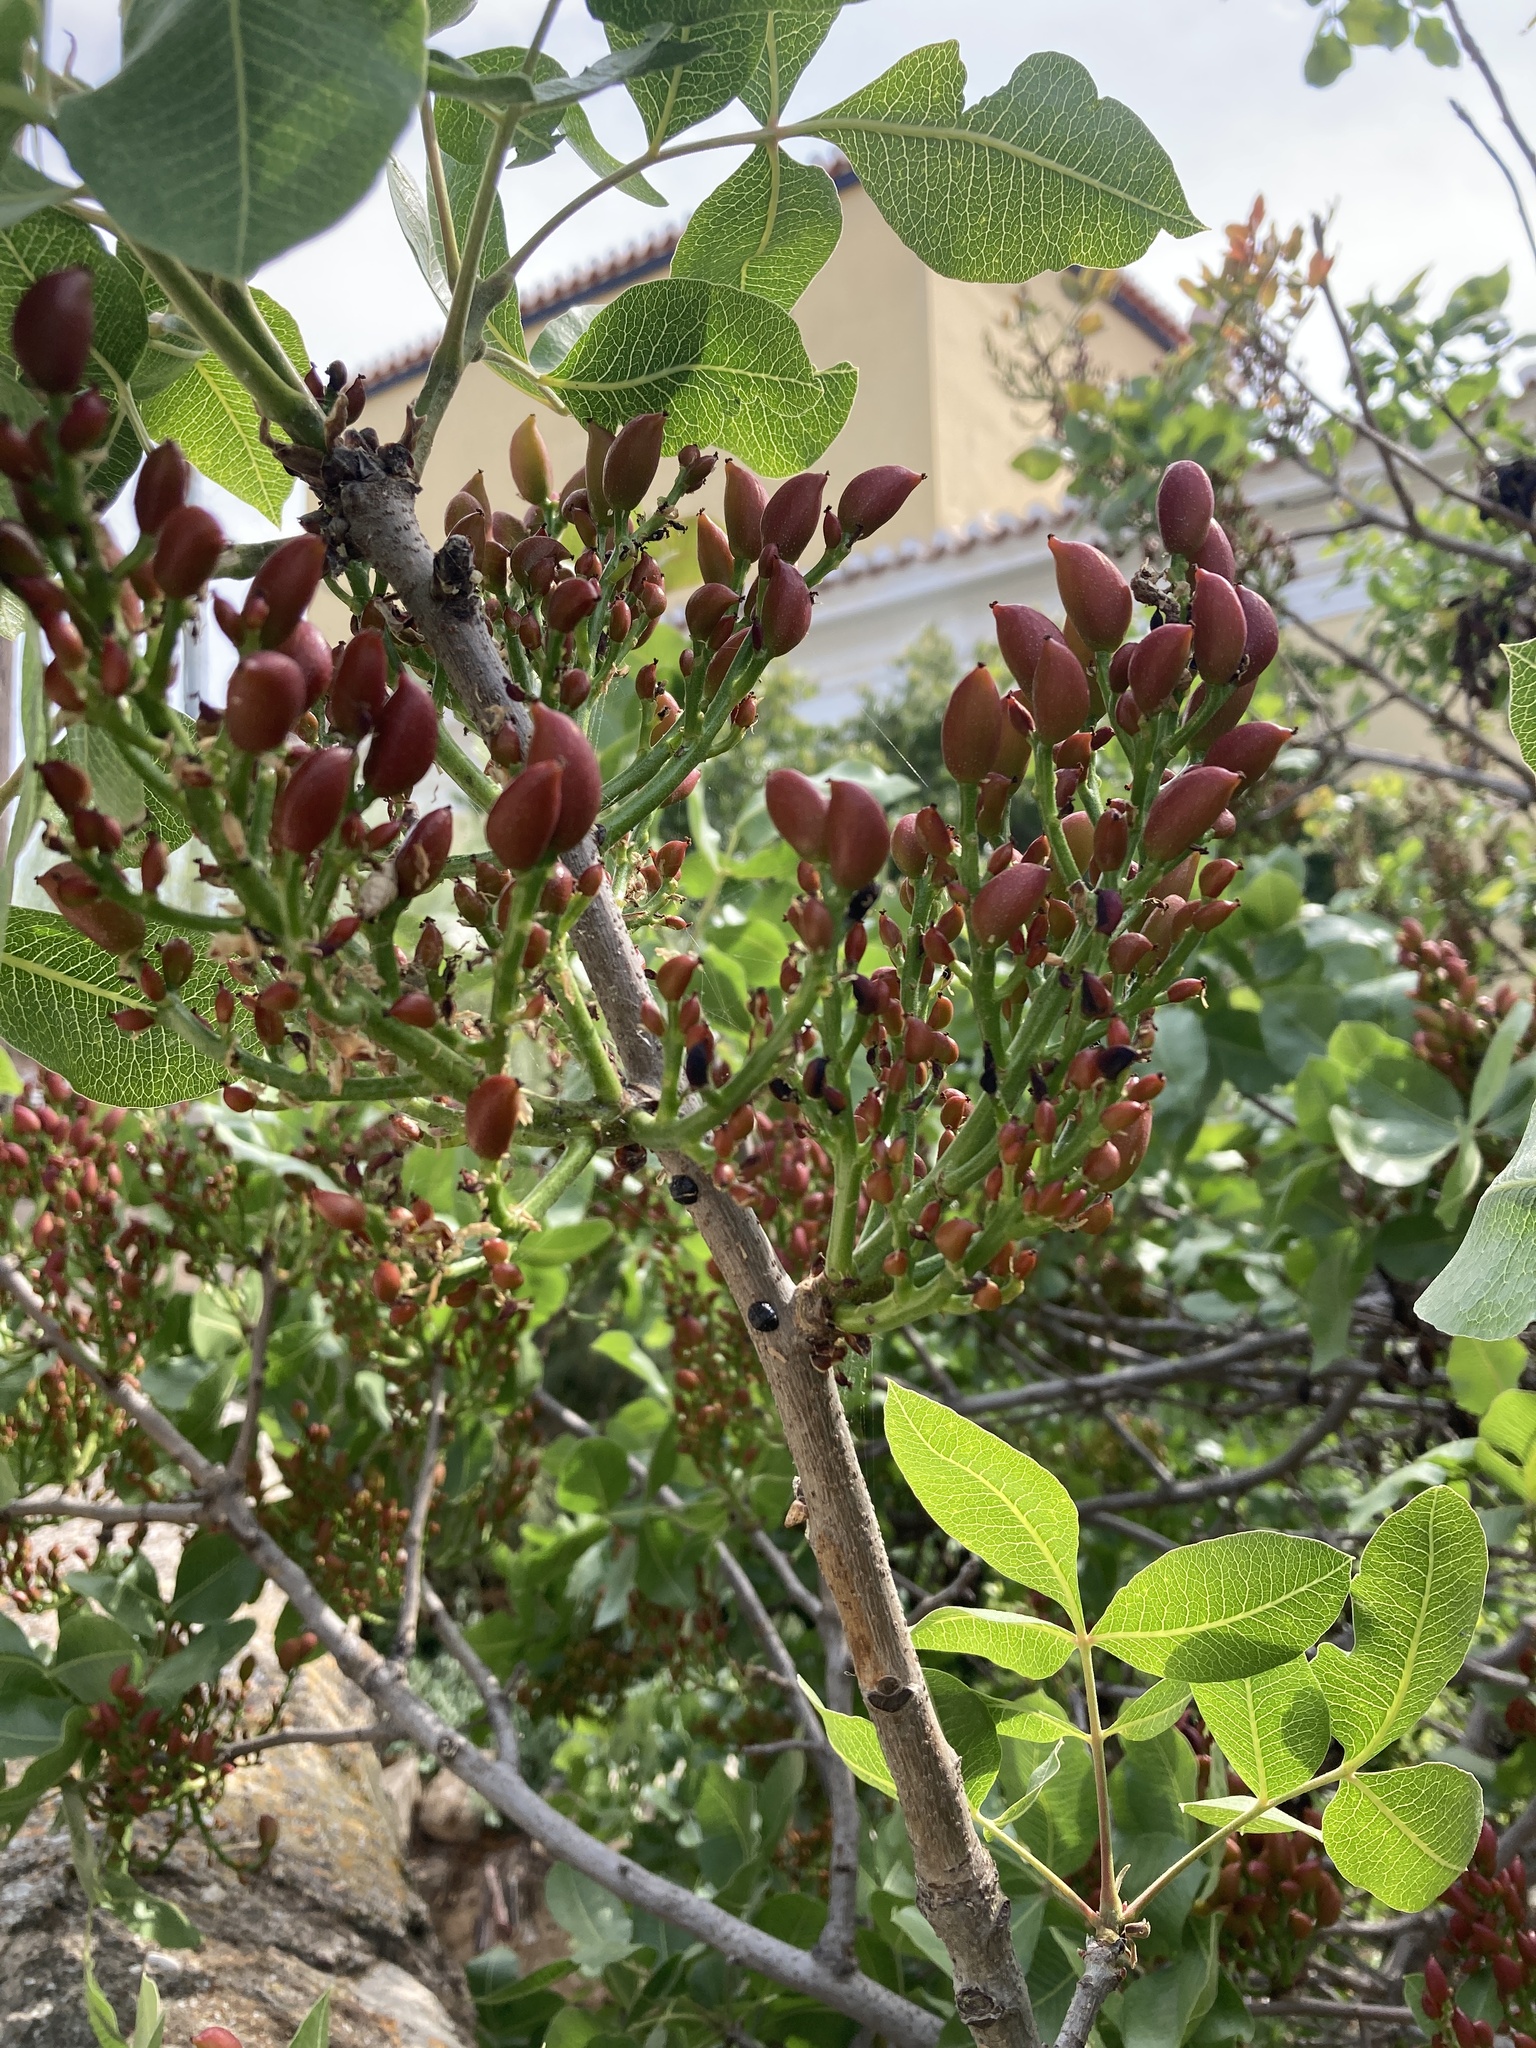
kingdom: Plantae
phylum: Tracheophyta
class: Magnoliopsida
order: Sapindales
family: Anacardiaceae
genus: Pistacia
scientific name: Pistacia vera
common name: Pistachio
